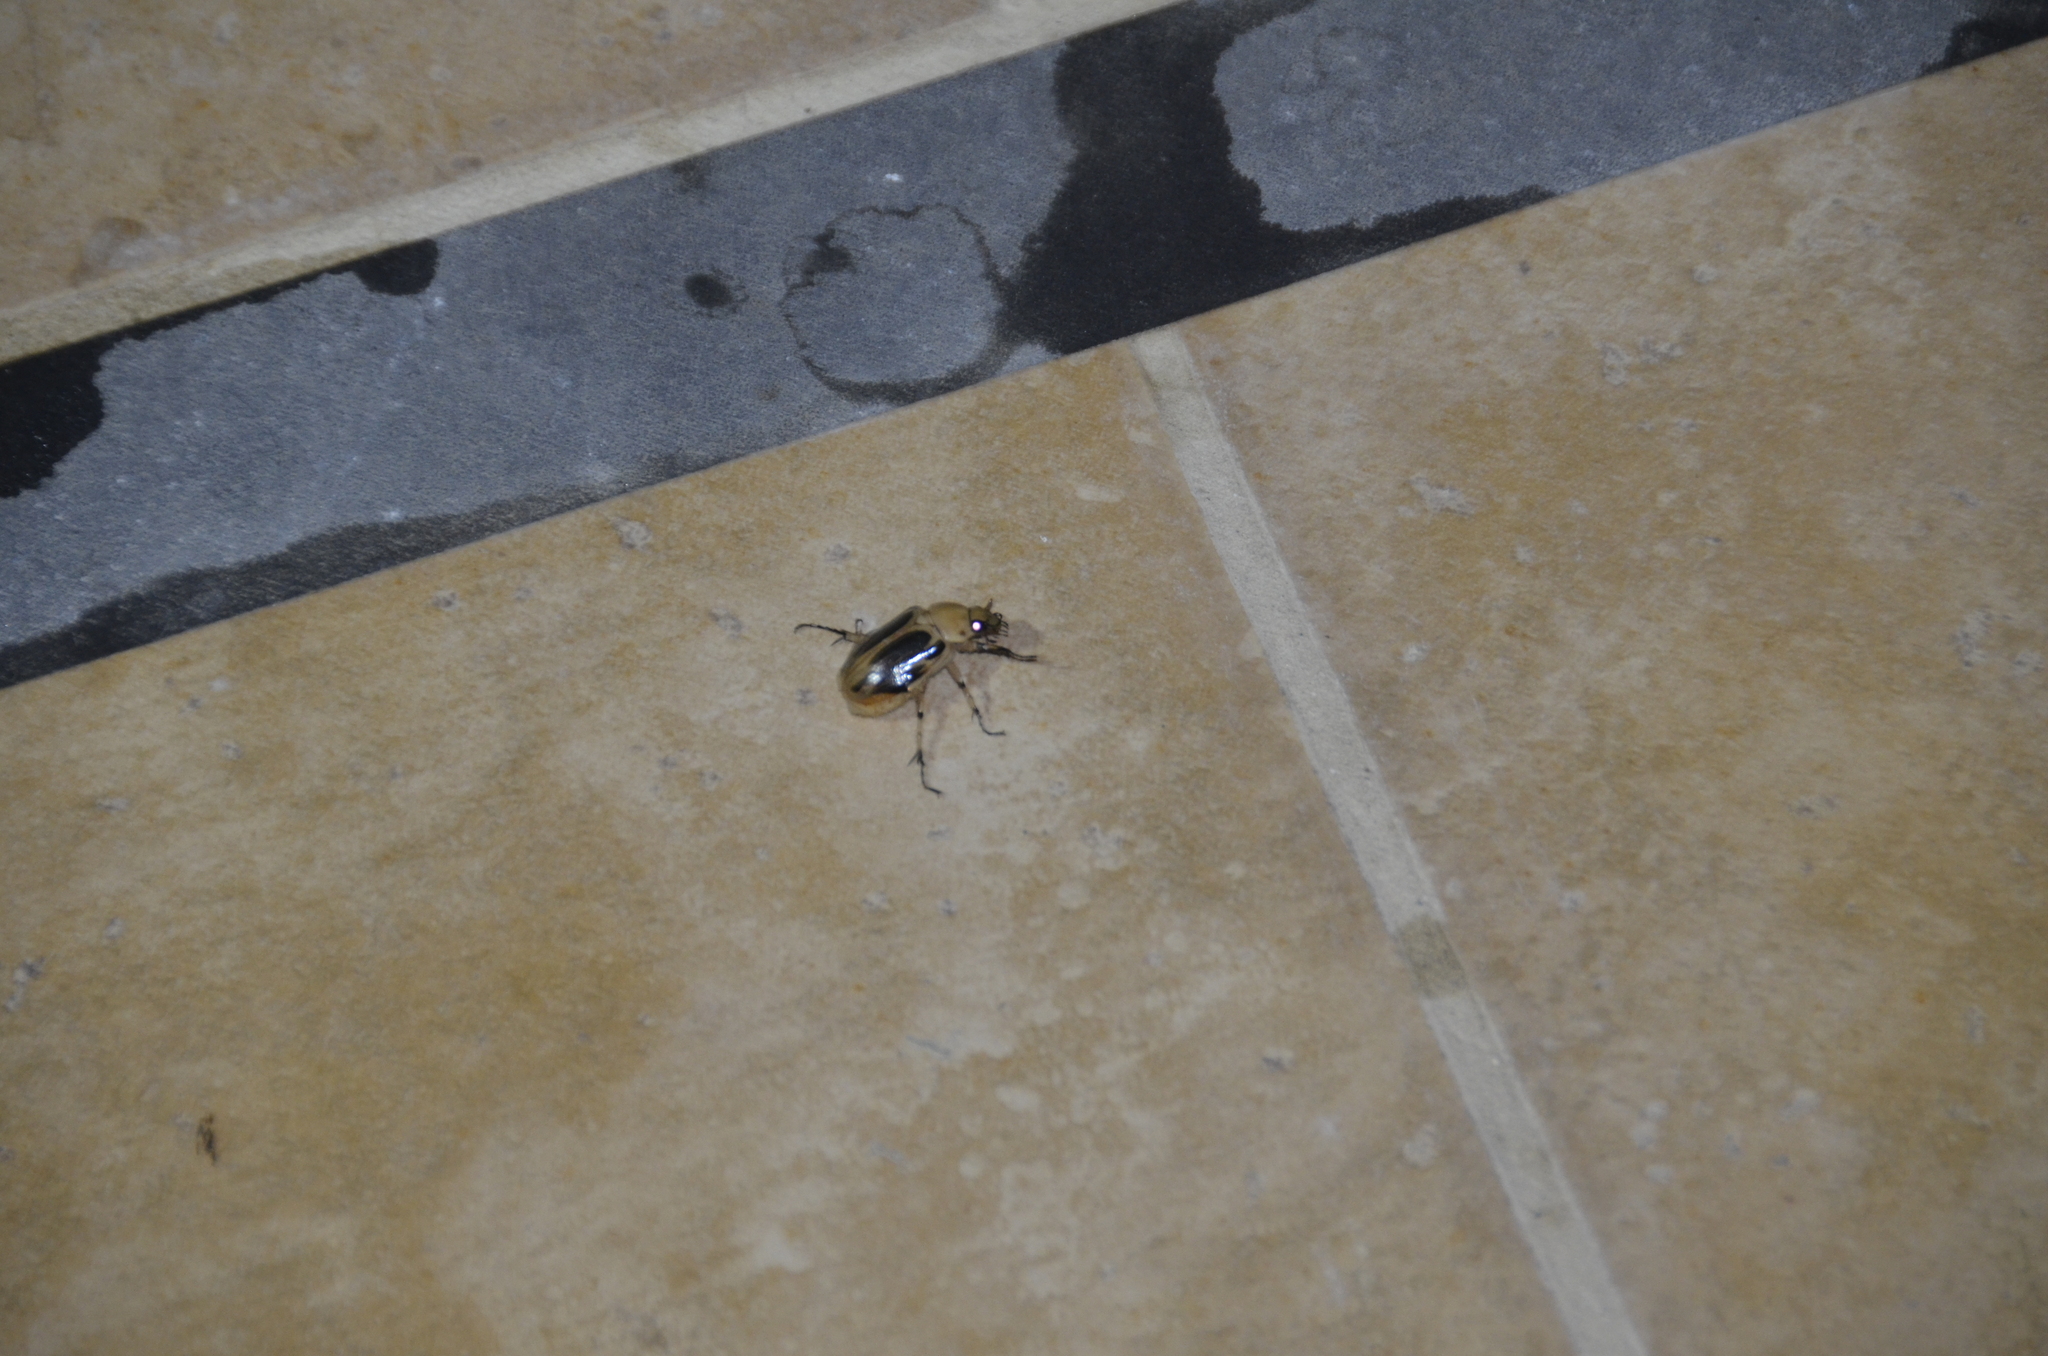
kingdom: Animalia
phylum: Arthropoda
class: Insecta
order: Coleoptera
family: Scarabaeidae
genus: Ancognatha
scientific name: Ancognatha vulgaris
